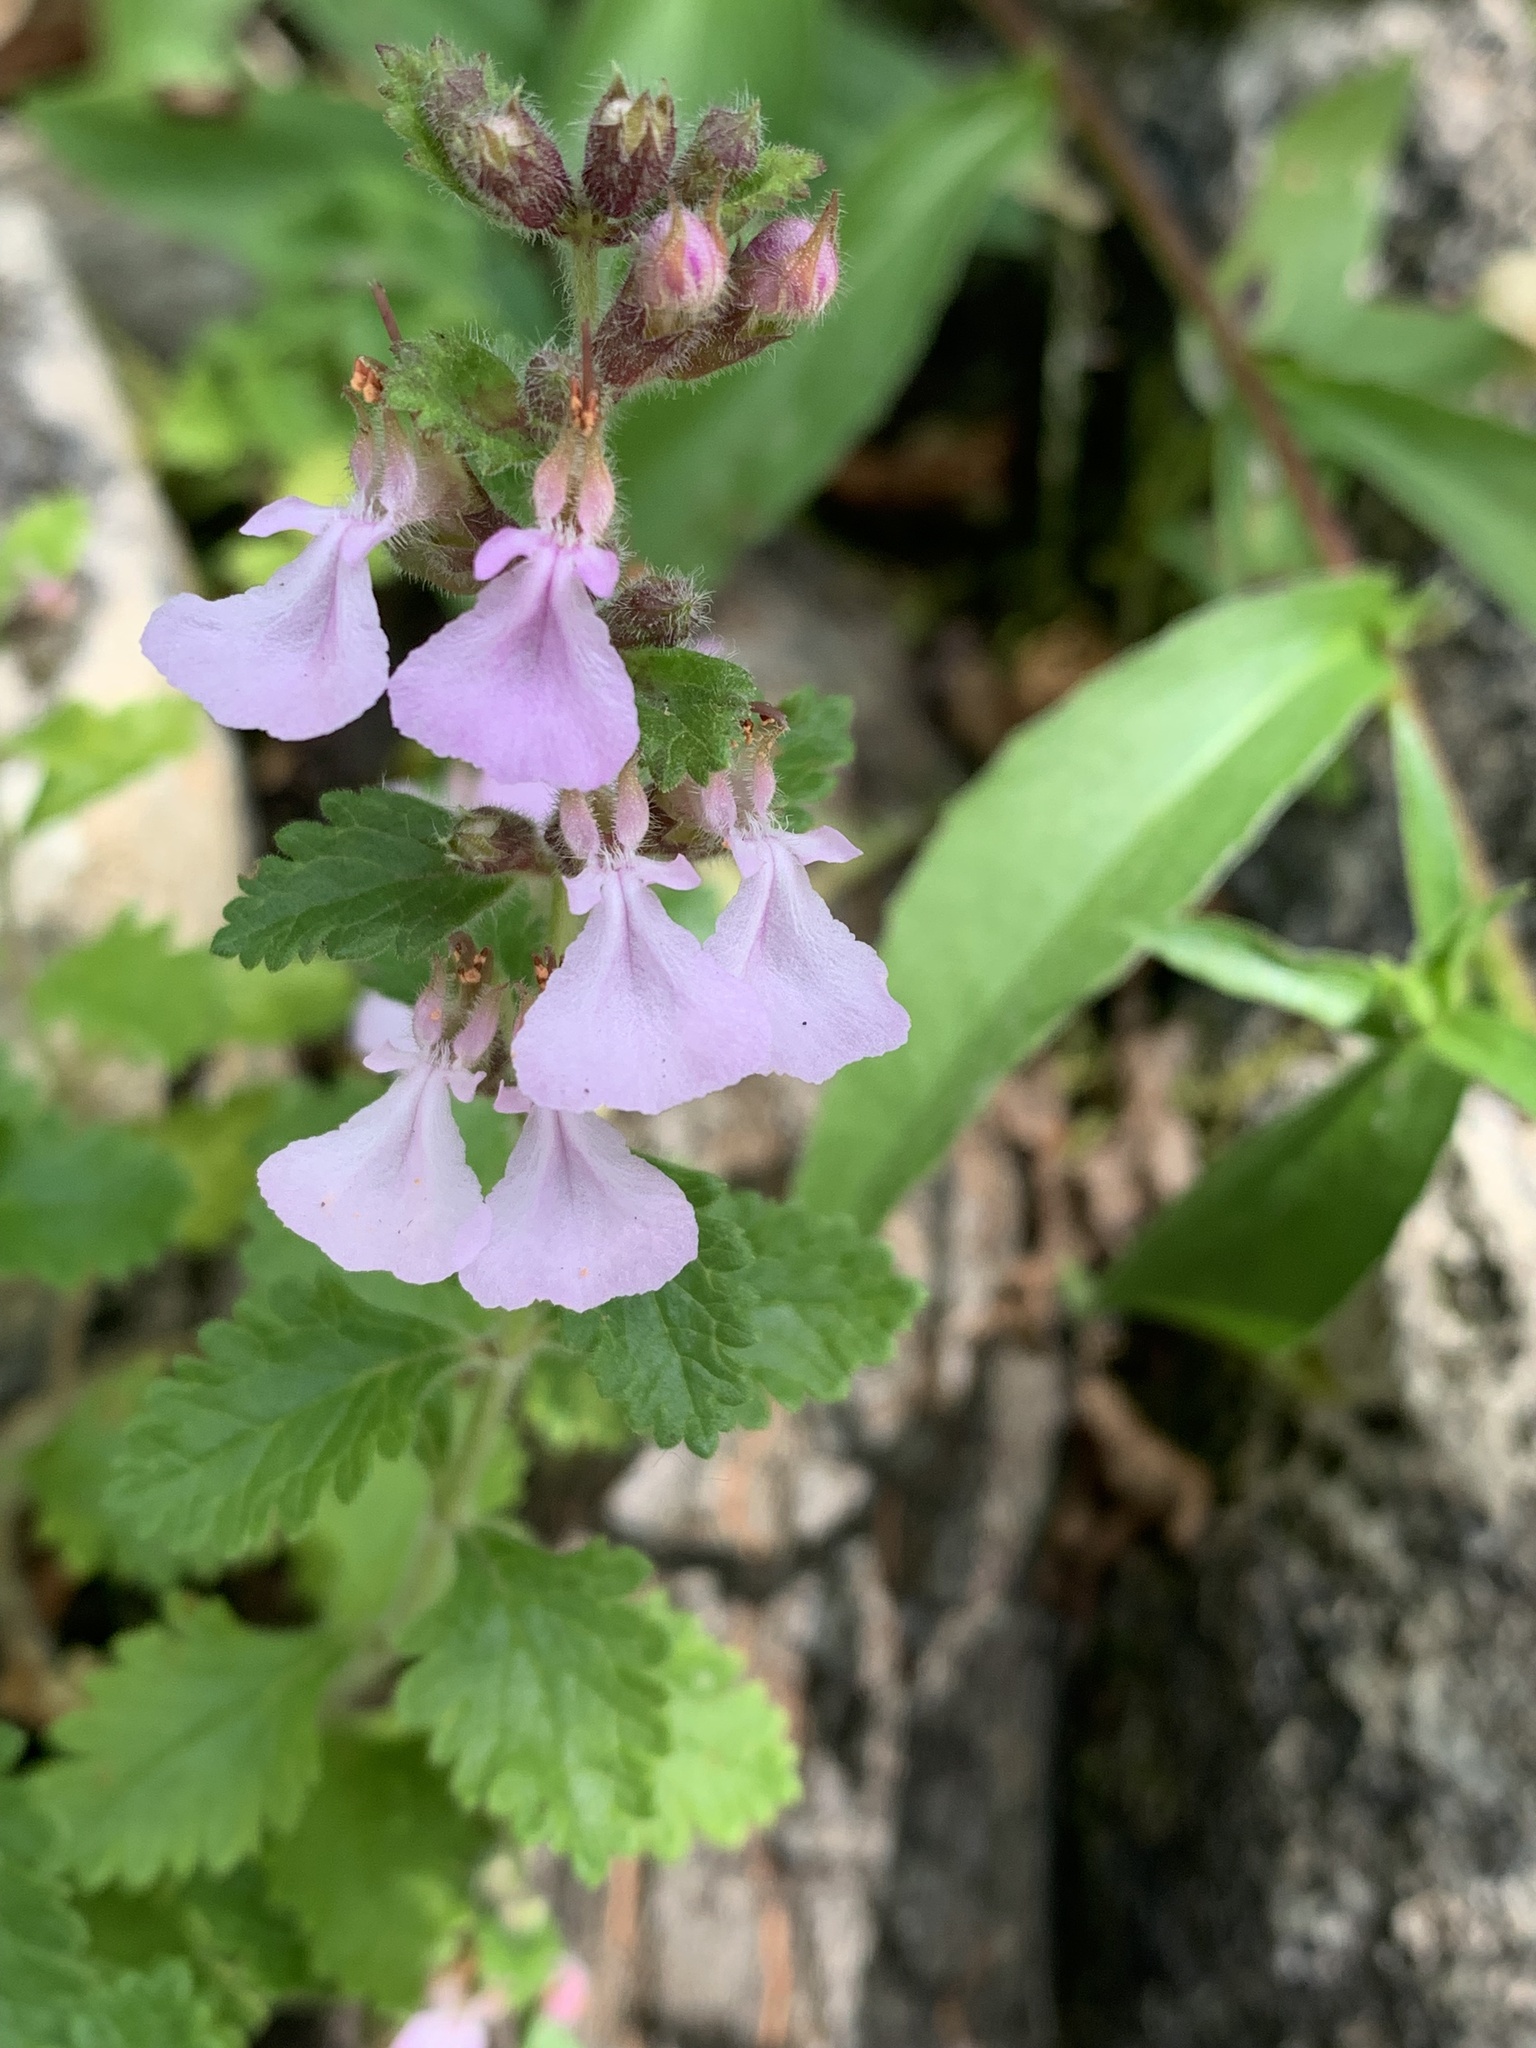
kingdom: Plantae
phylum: Tracheophyta
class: Magnoliopsida
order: Lamiales
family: Lamiaceae
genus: Teucrium
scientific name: Teucrium chamaedrys
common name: Wall germander
